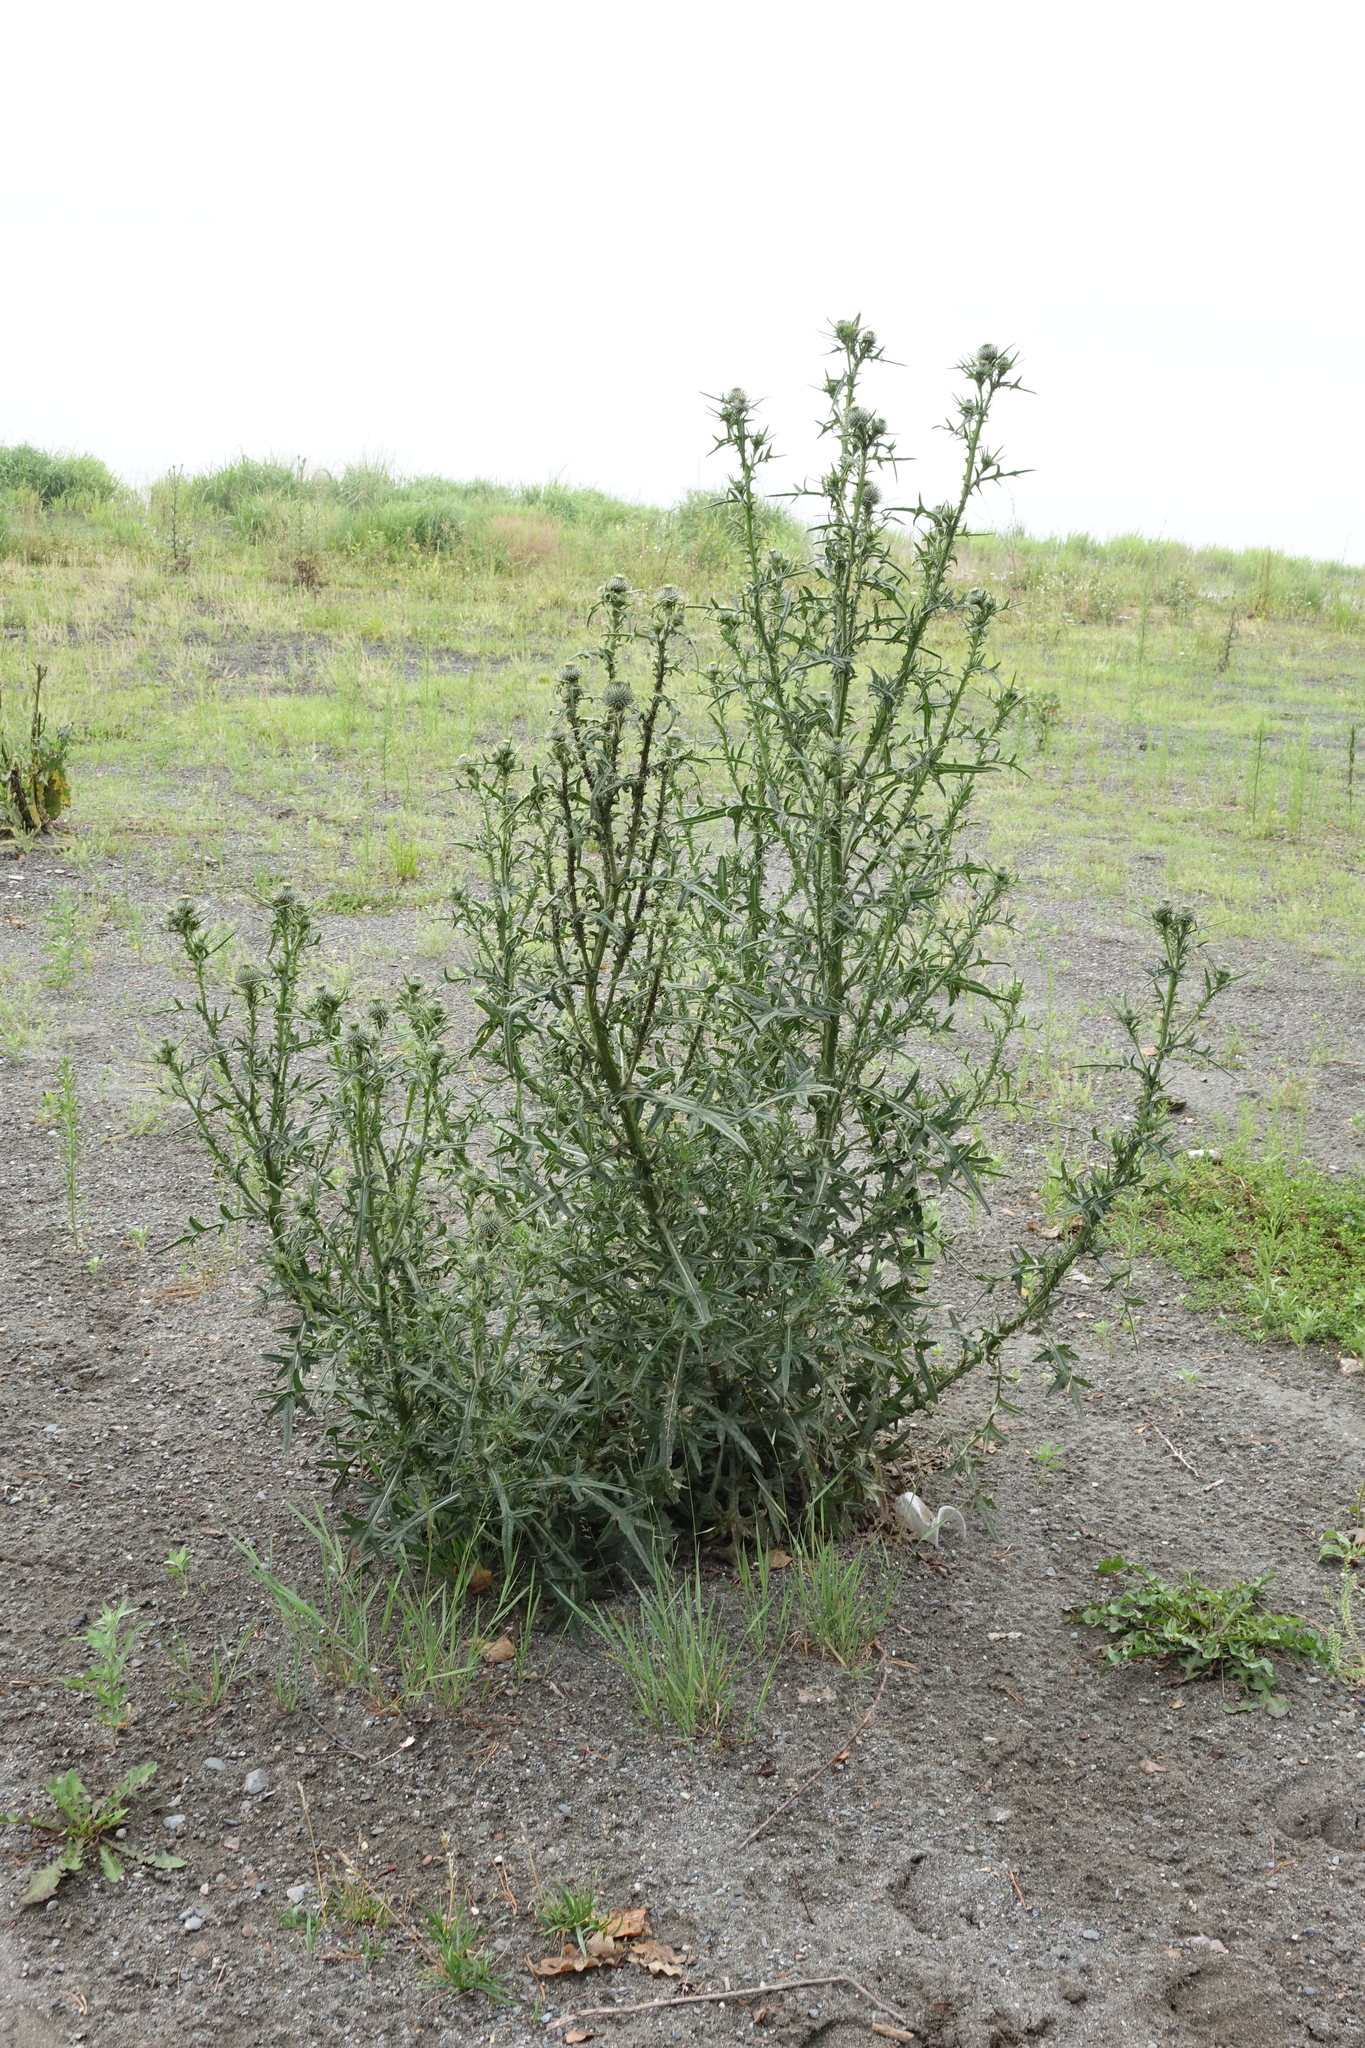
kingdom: Plantae
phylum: Tracheophyta
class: Magnoliopsida
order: Asterales
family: Asteraceae
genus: Cirsium
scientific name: Cirsium vulgare
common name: Bull thistle
